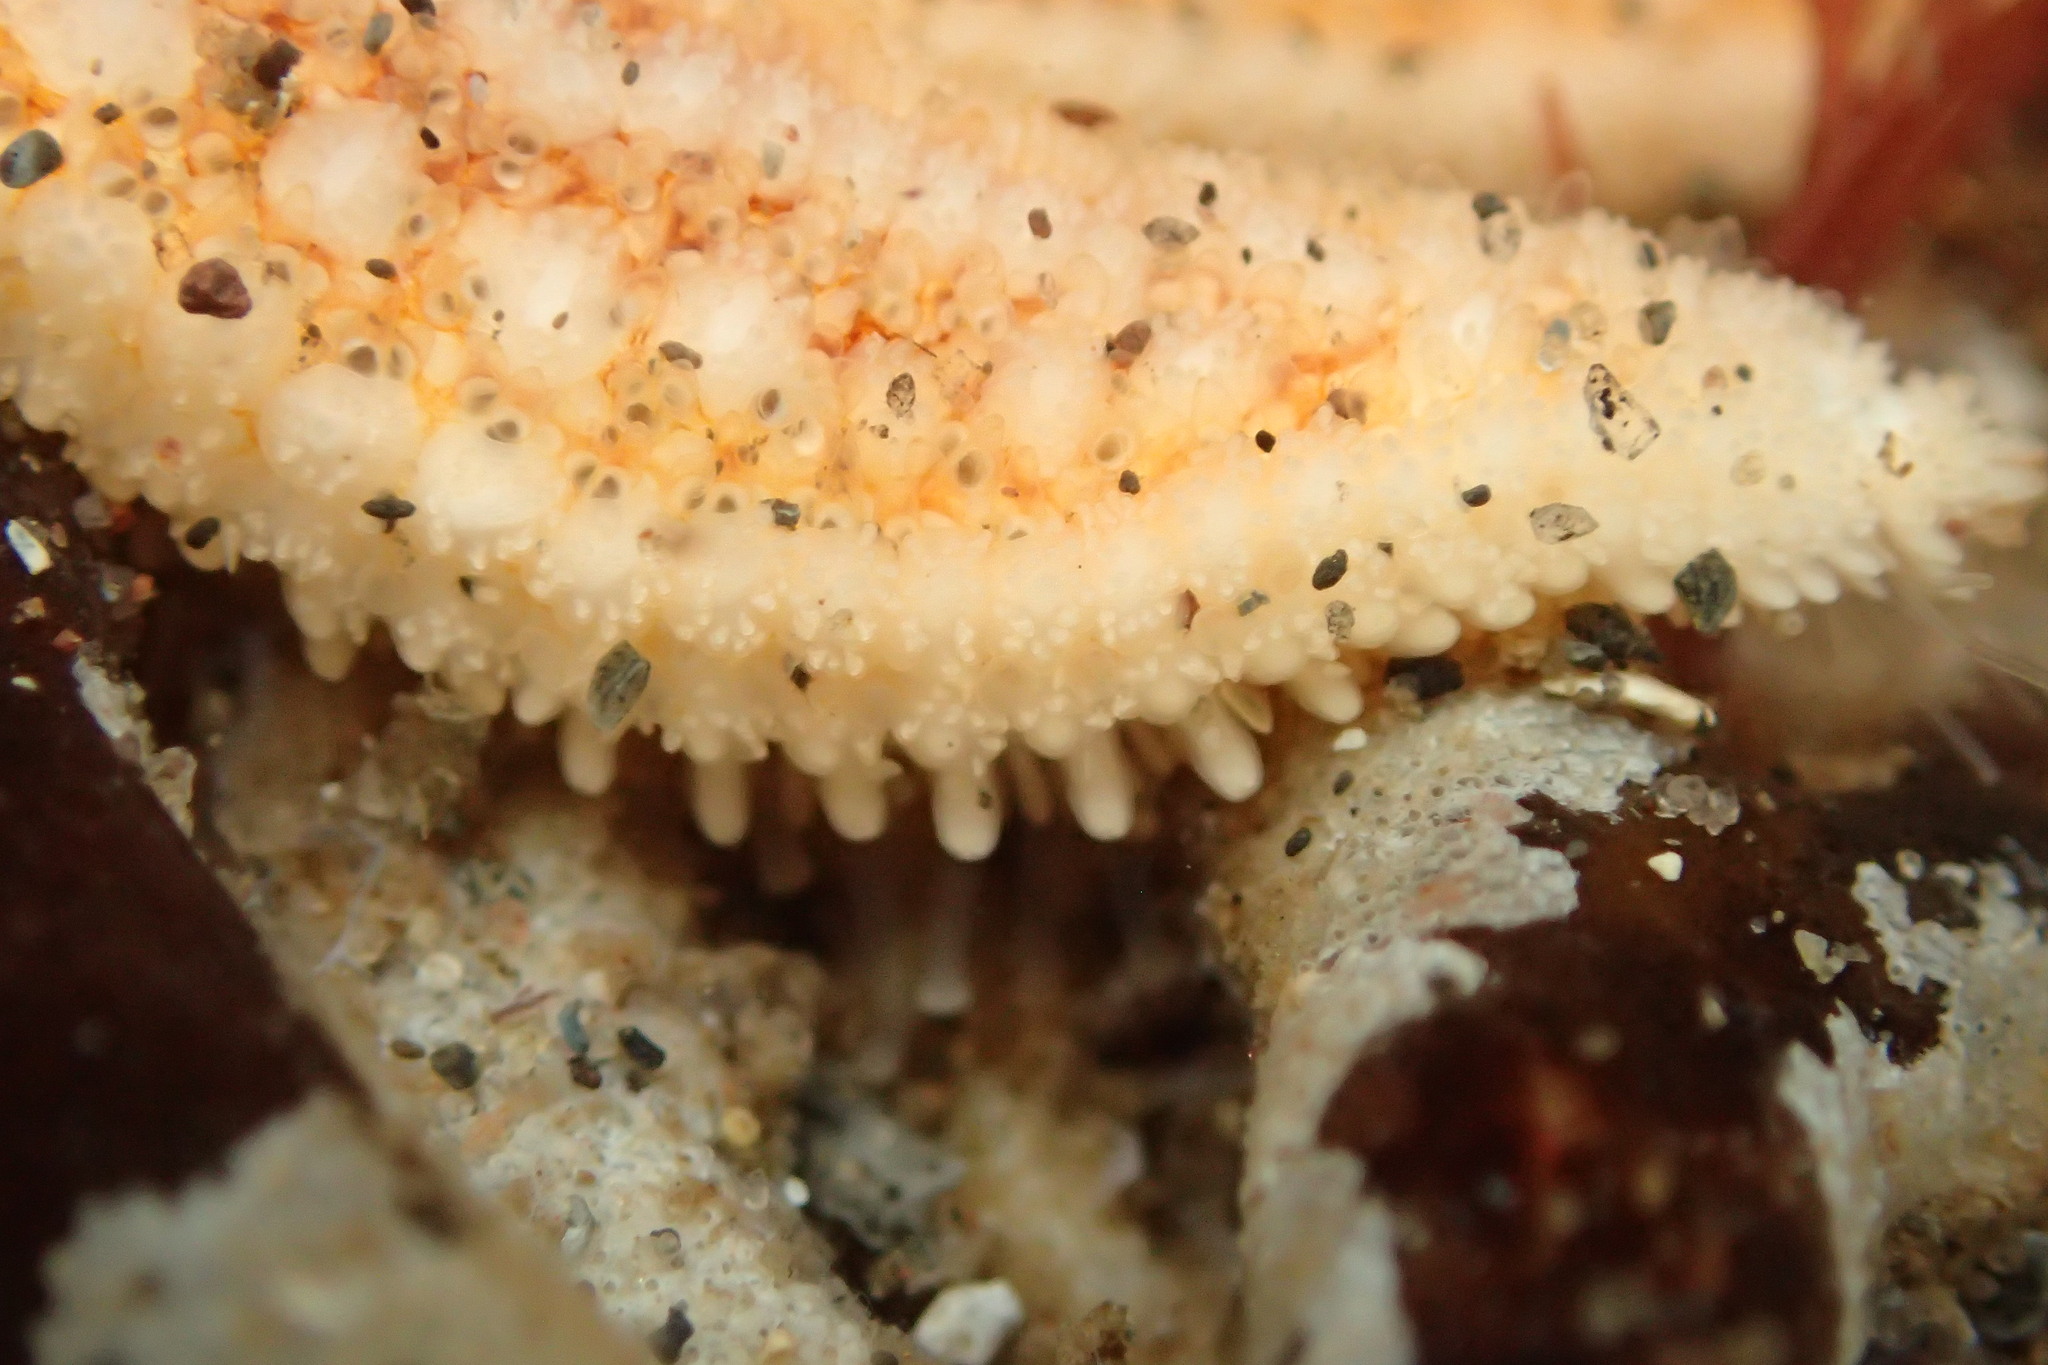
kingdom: Animalia
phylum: Echinodermata
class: Asteroidea
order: Forcipulatida
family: Asteriidae
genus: Asterias
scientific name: Asterias rubens
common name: Common starfish
